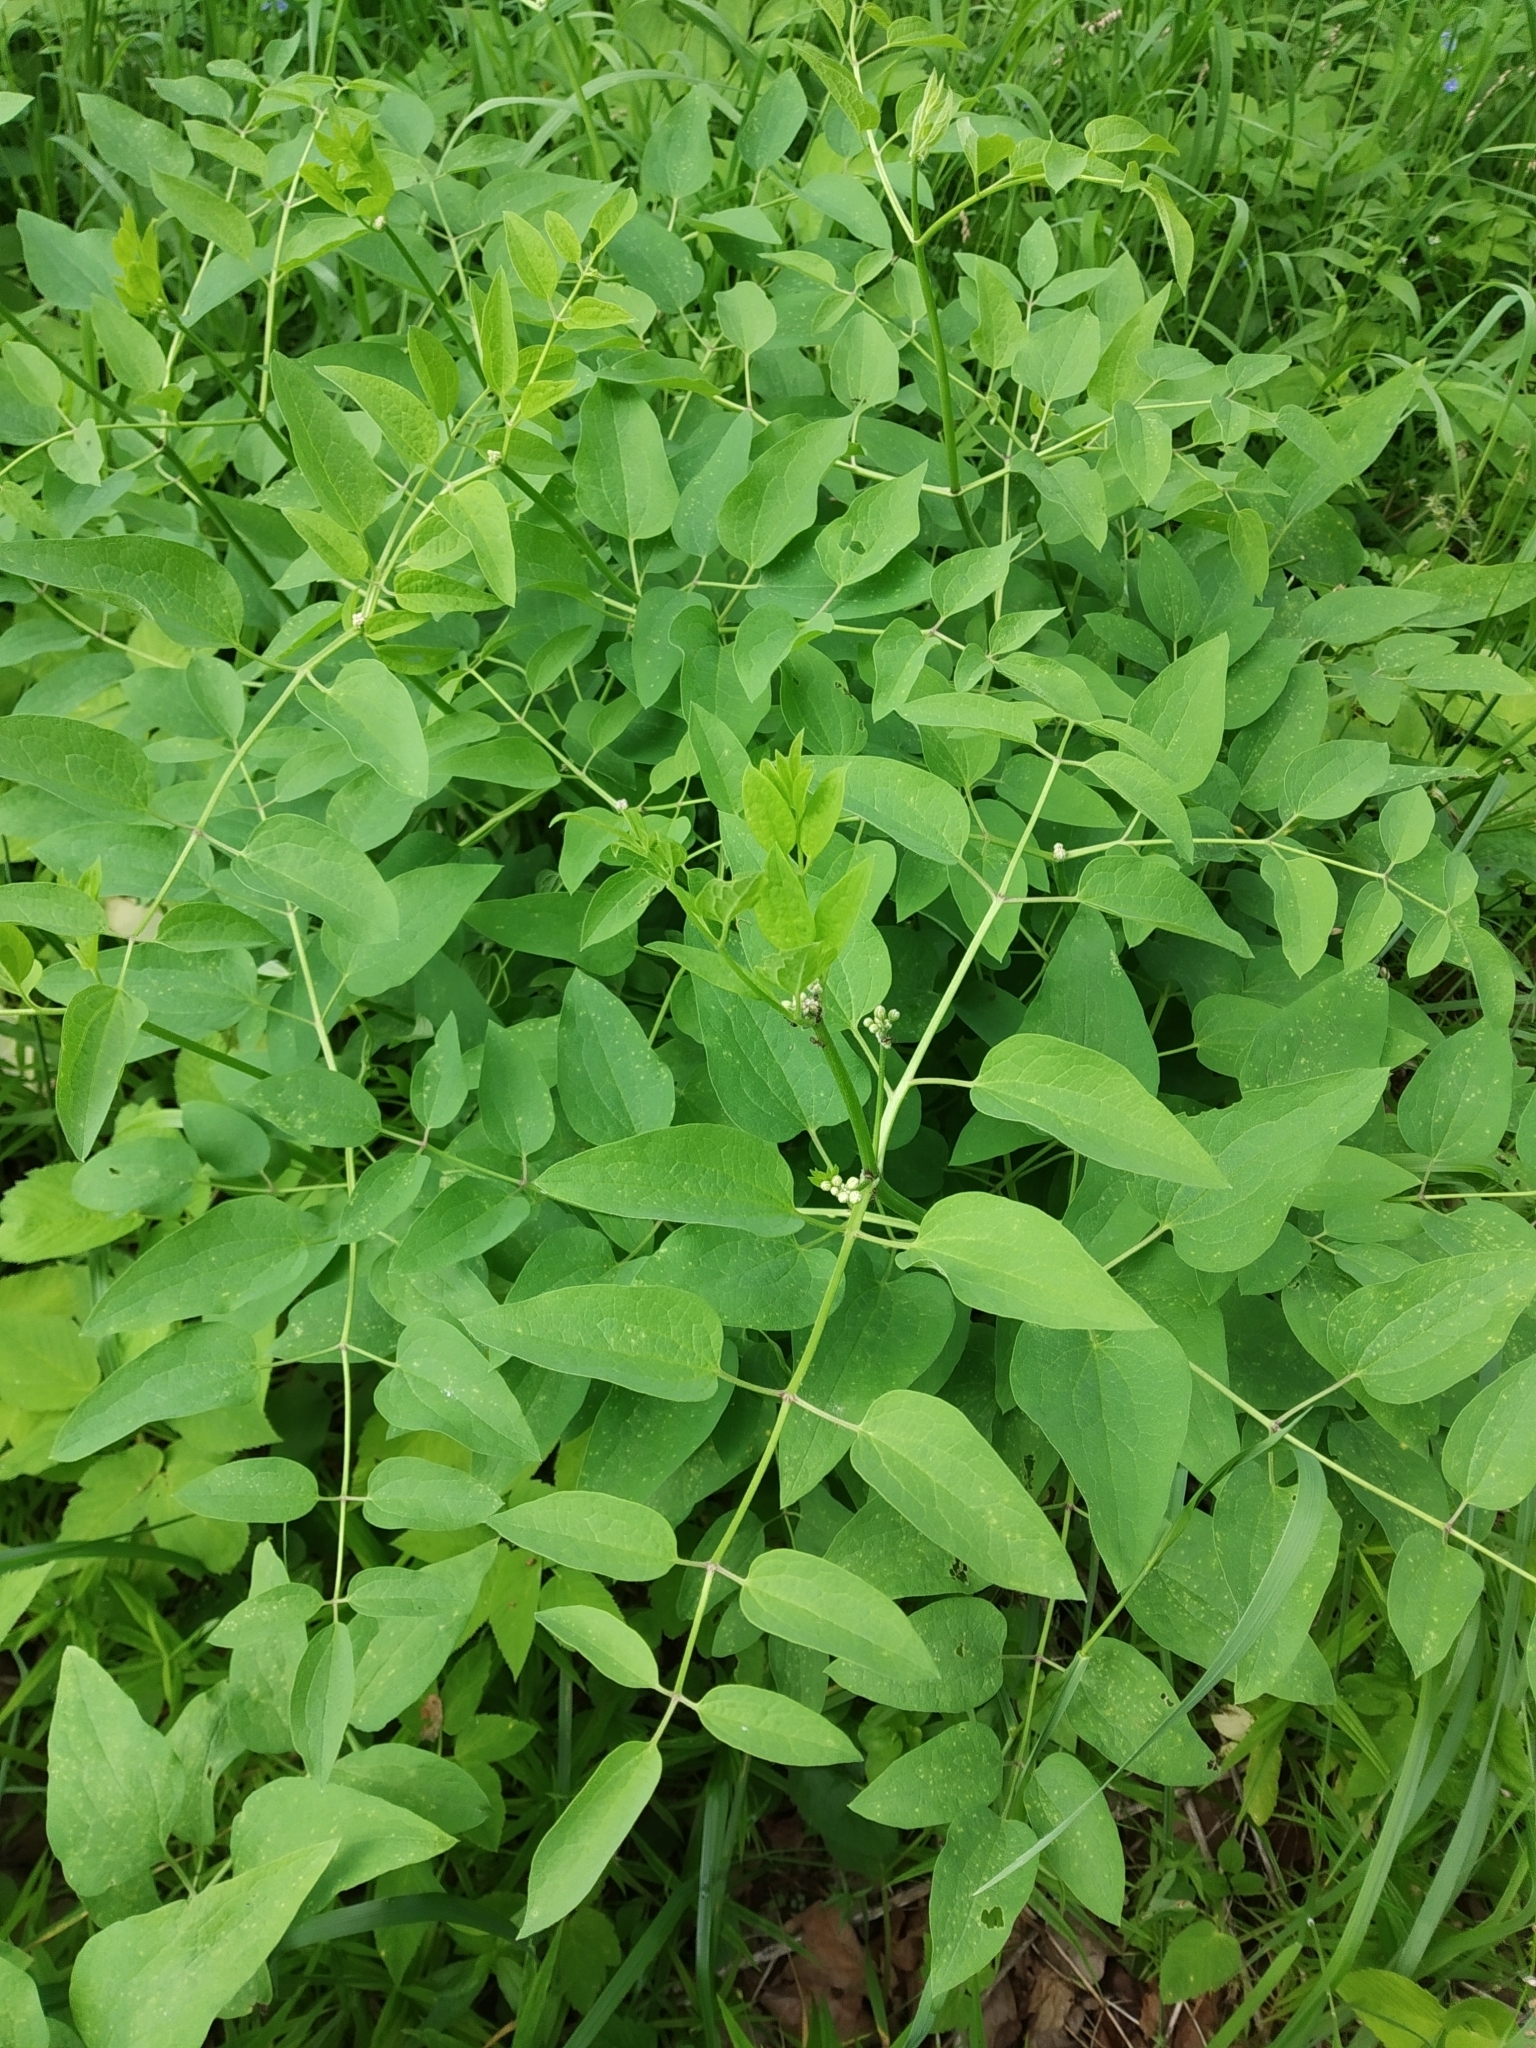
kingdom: Plantae
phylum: Tracheophyta
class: Magnoliopsida
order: Ranunculales
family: Ranunculaceae
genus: Clematis
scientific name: Clematis recta
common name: Ground clematis
